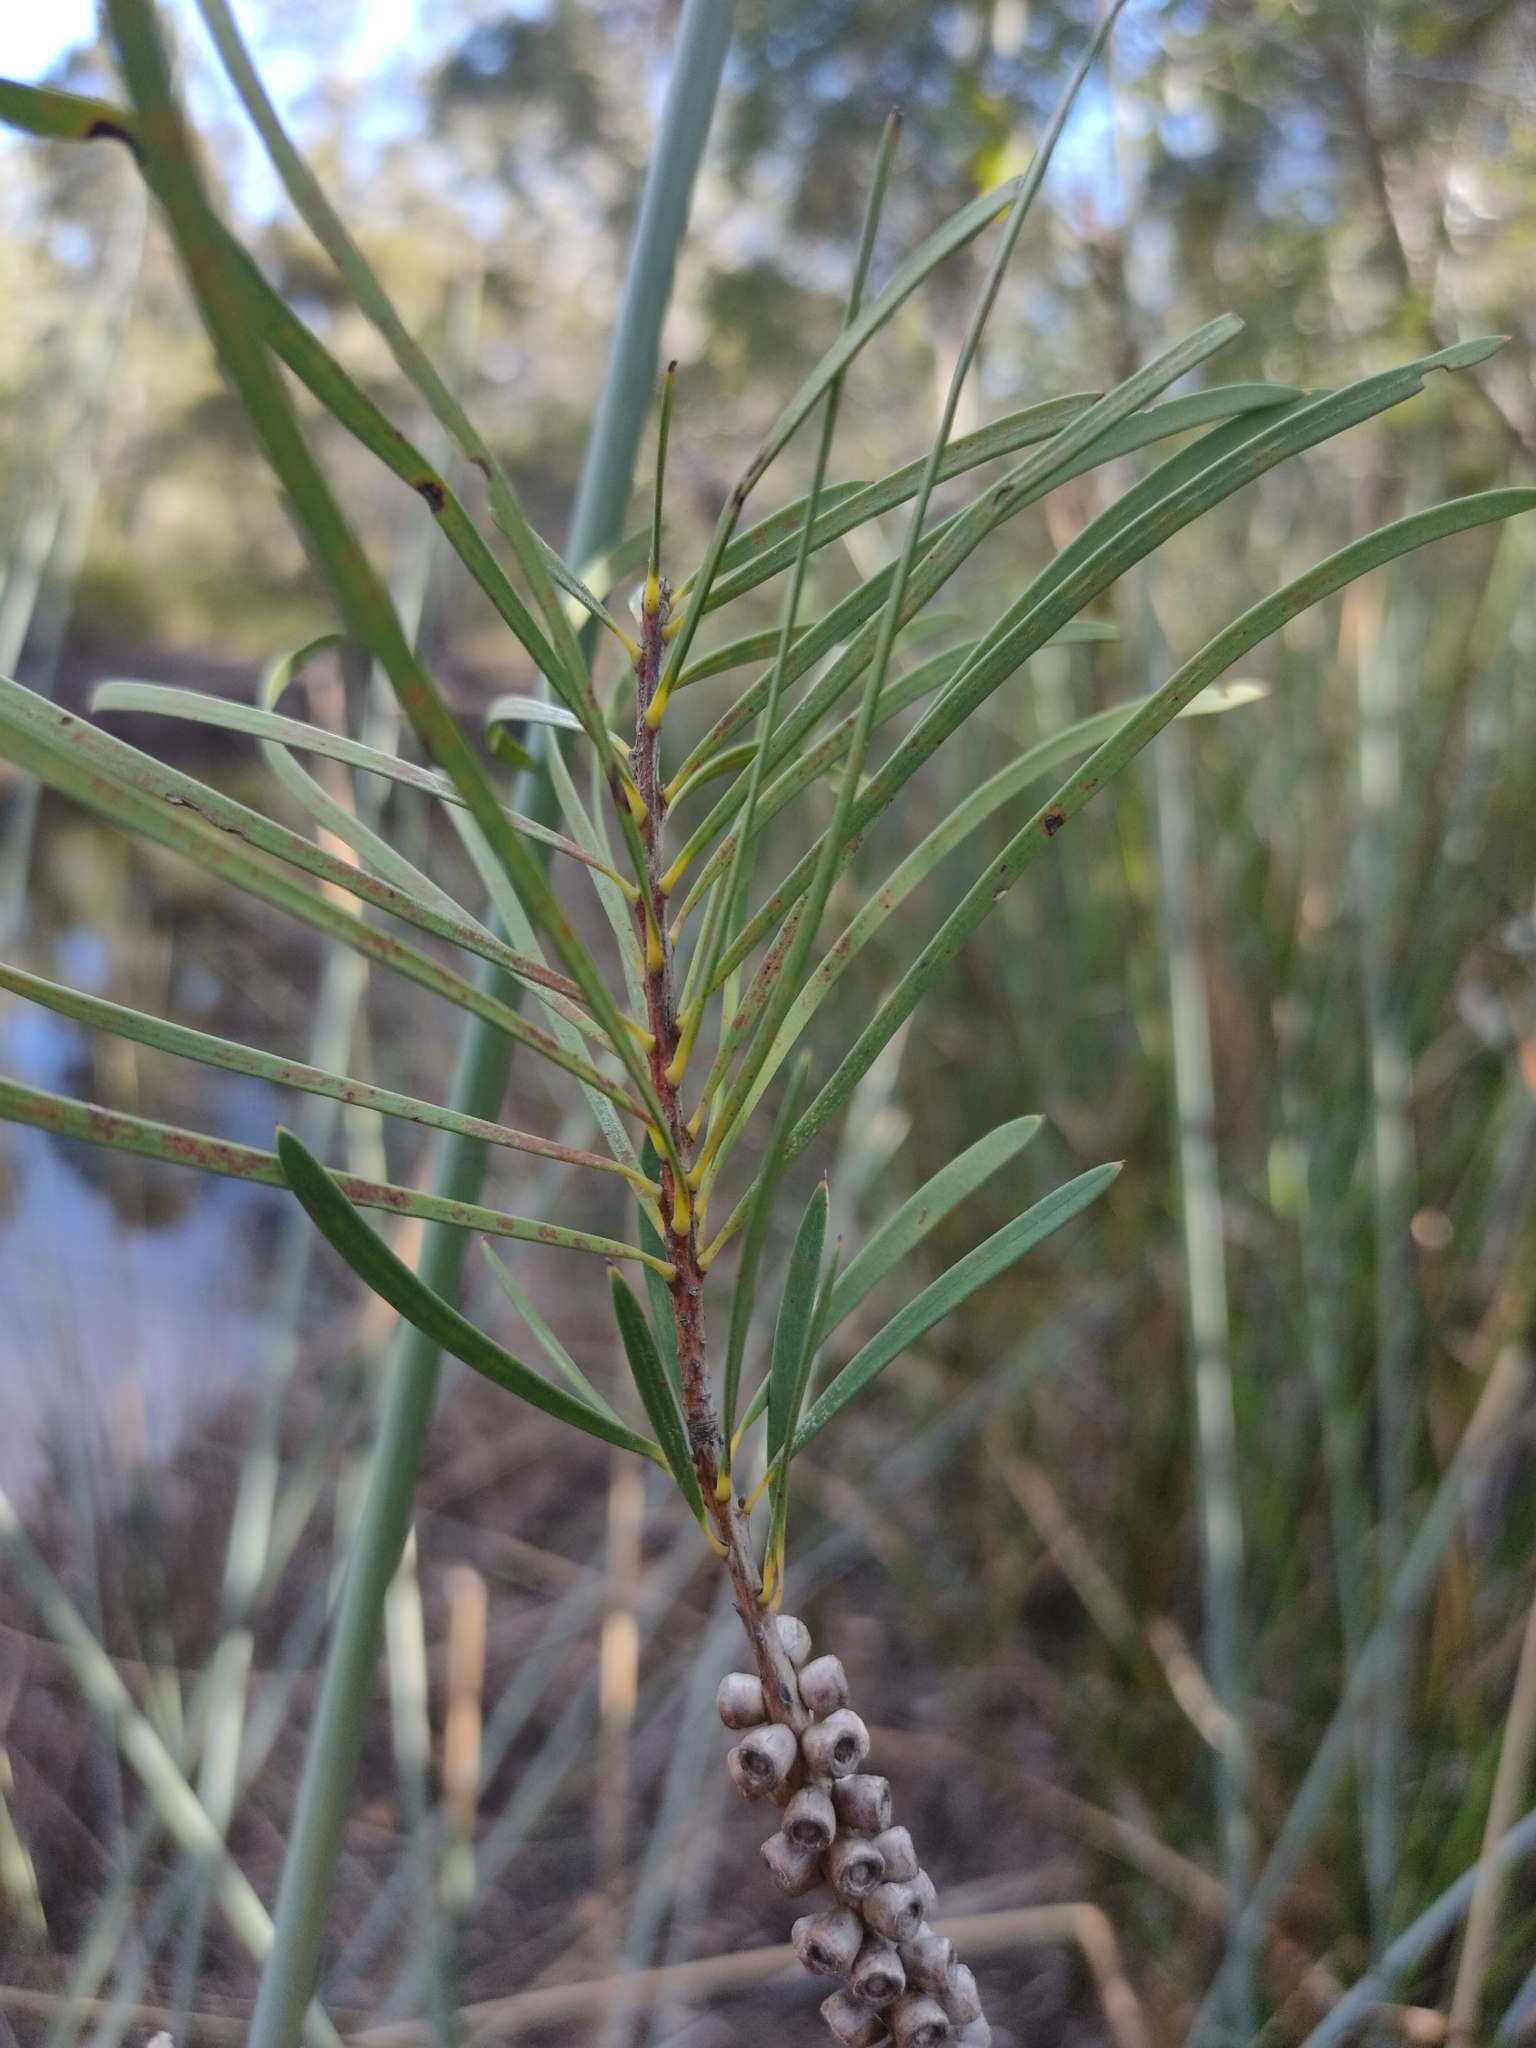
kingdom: Plantae
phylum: Tracheophyta
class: Magnoliopsida
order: Myrtales
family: Myrtaceae
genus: Callistemon
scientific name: Callistemon pachyphyllus
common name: Wallum bottlebrush
